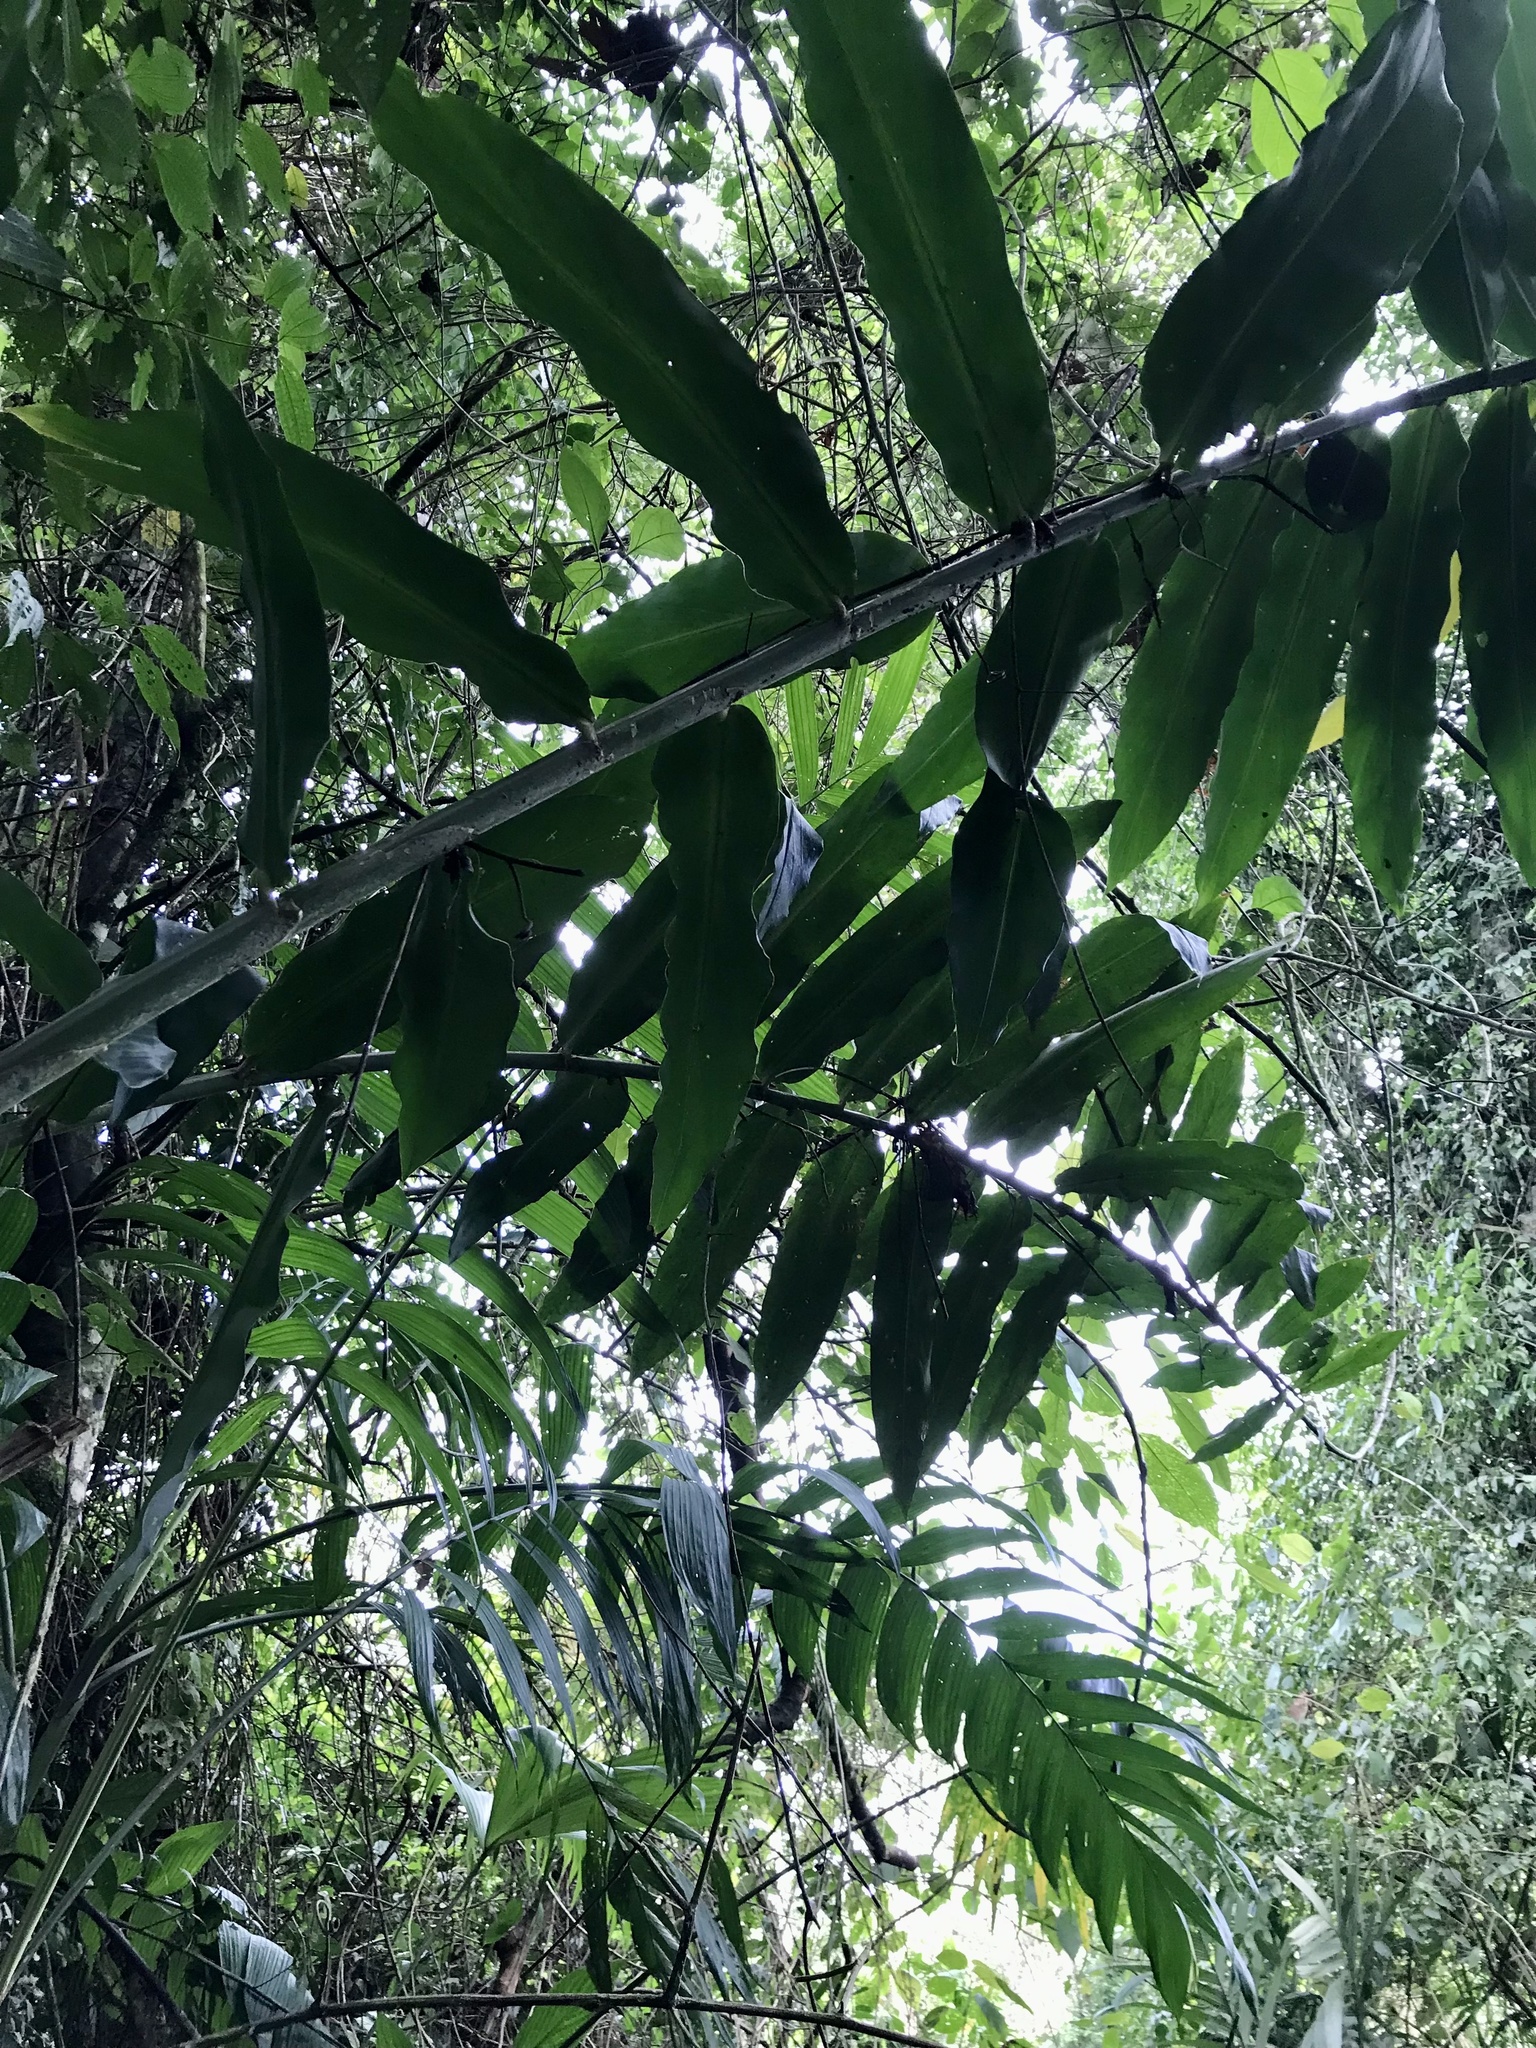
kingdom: Plantae
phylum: Tracheophyta
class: Liliopsida
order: Zingiberales
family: Zingiberaceae
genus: Zingiber
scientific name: Zingiber spectabile
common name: Beehive ginger
